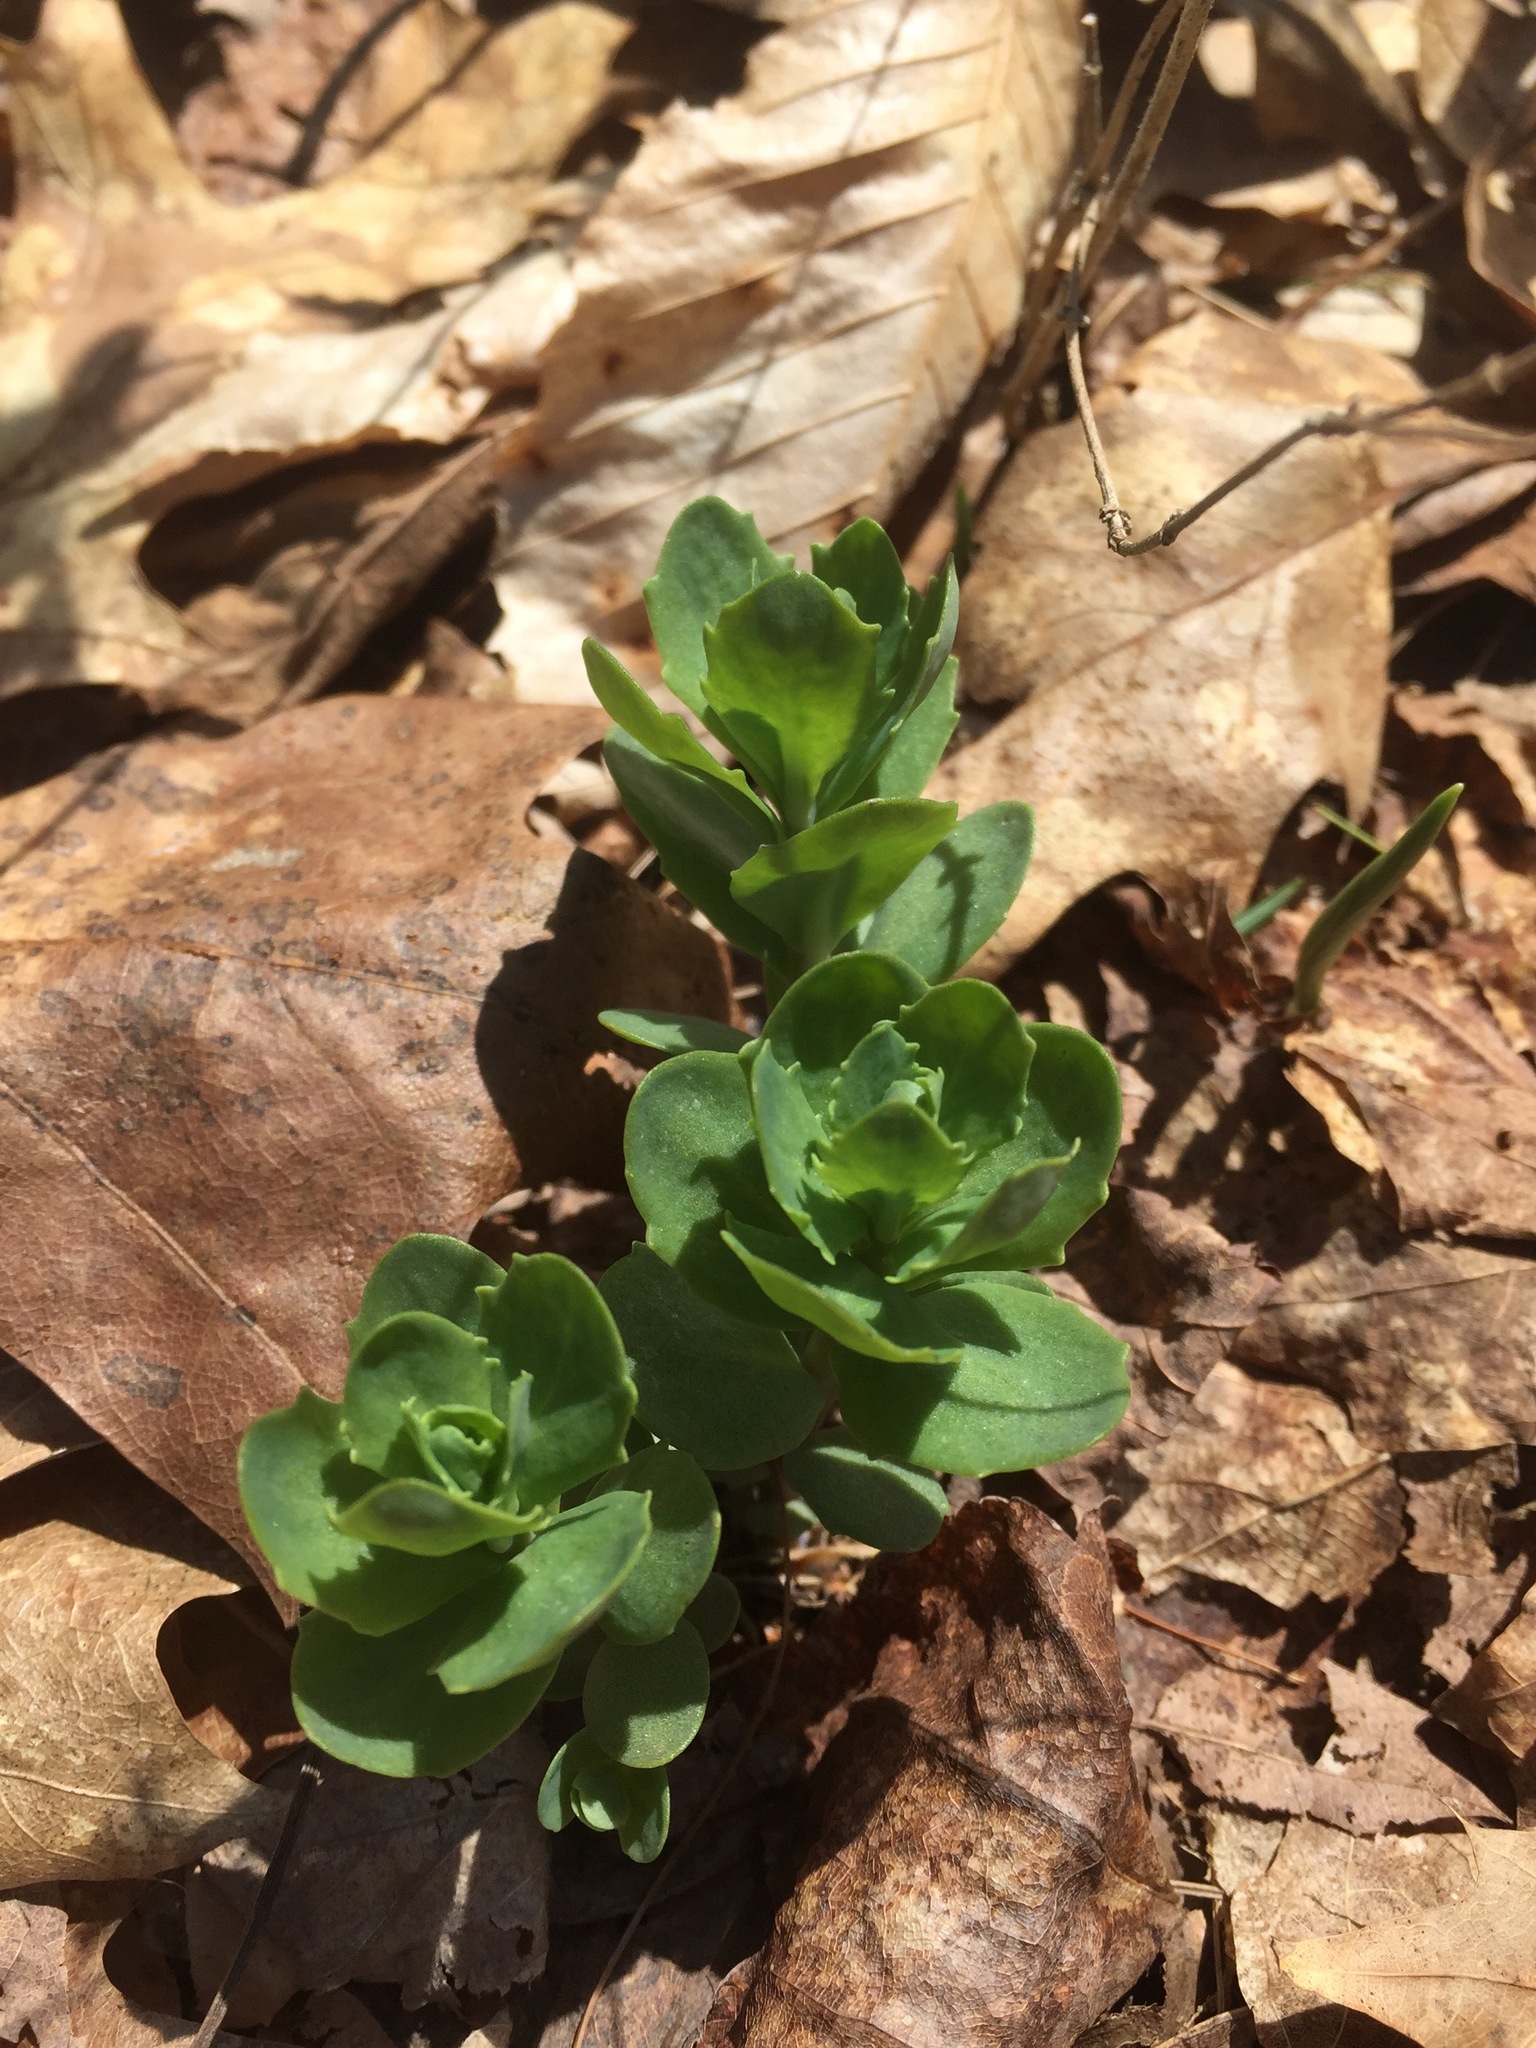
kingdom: Plantae
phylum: Tracheophyta
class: Magnoliopsida
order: Saxifragales
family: Crassulaceae
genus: Hylotelephium
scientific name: Hylotelephium telephium
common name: Live-forever
